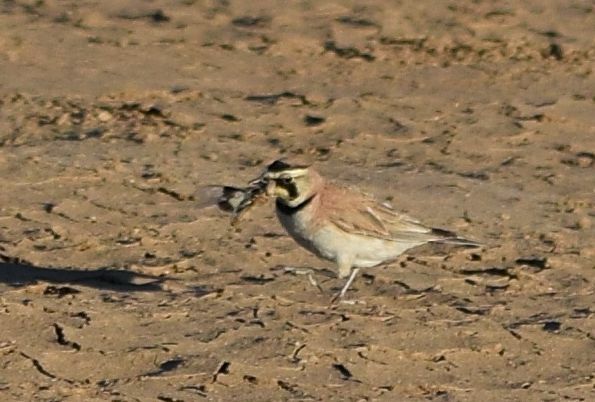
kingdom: Animalia
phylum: Chordata
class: Aves
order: Passeriformes
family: Alaudidae
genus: Eremophila
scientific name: Eremophila alpestris
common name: Horned lark
